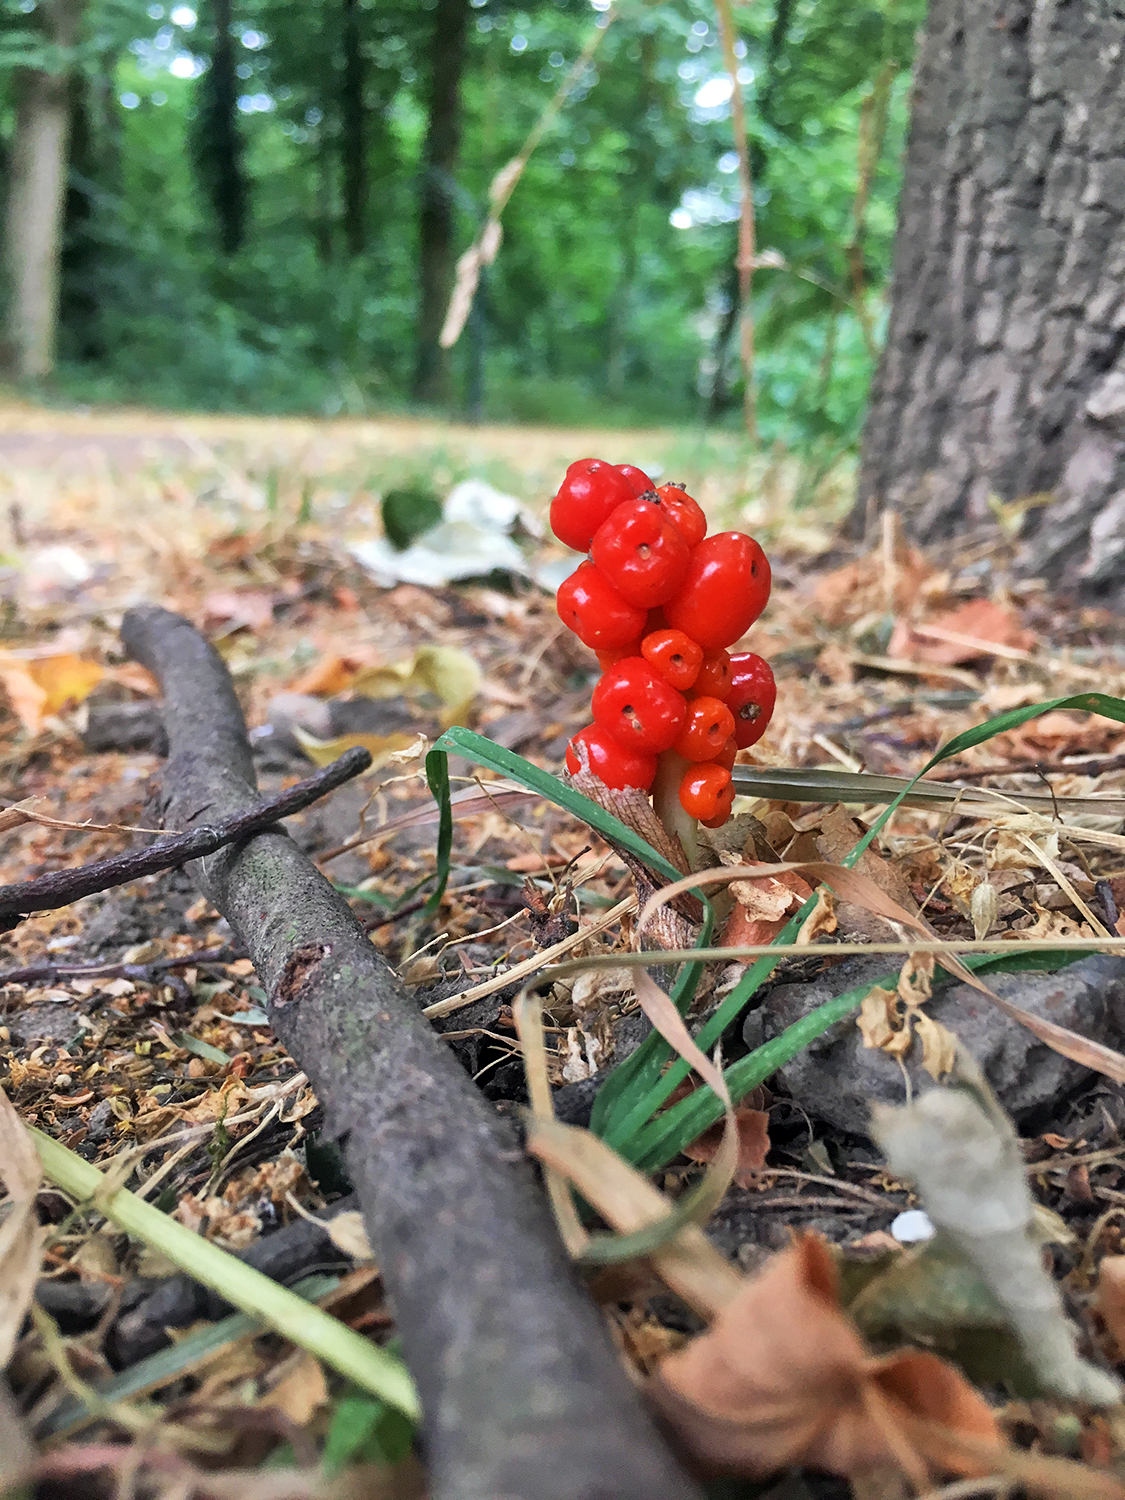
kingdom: Plantae
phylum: Tracheophyta
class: Liliopsida
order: Alismatales
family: Araceae
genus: Arum
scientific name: Arum maculatum
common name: Lords-and-ladies
